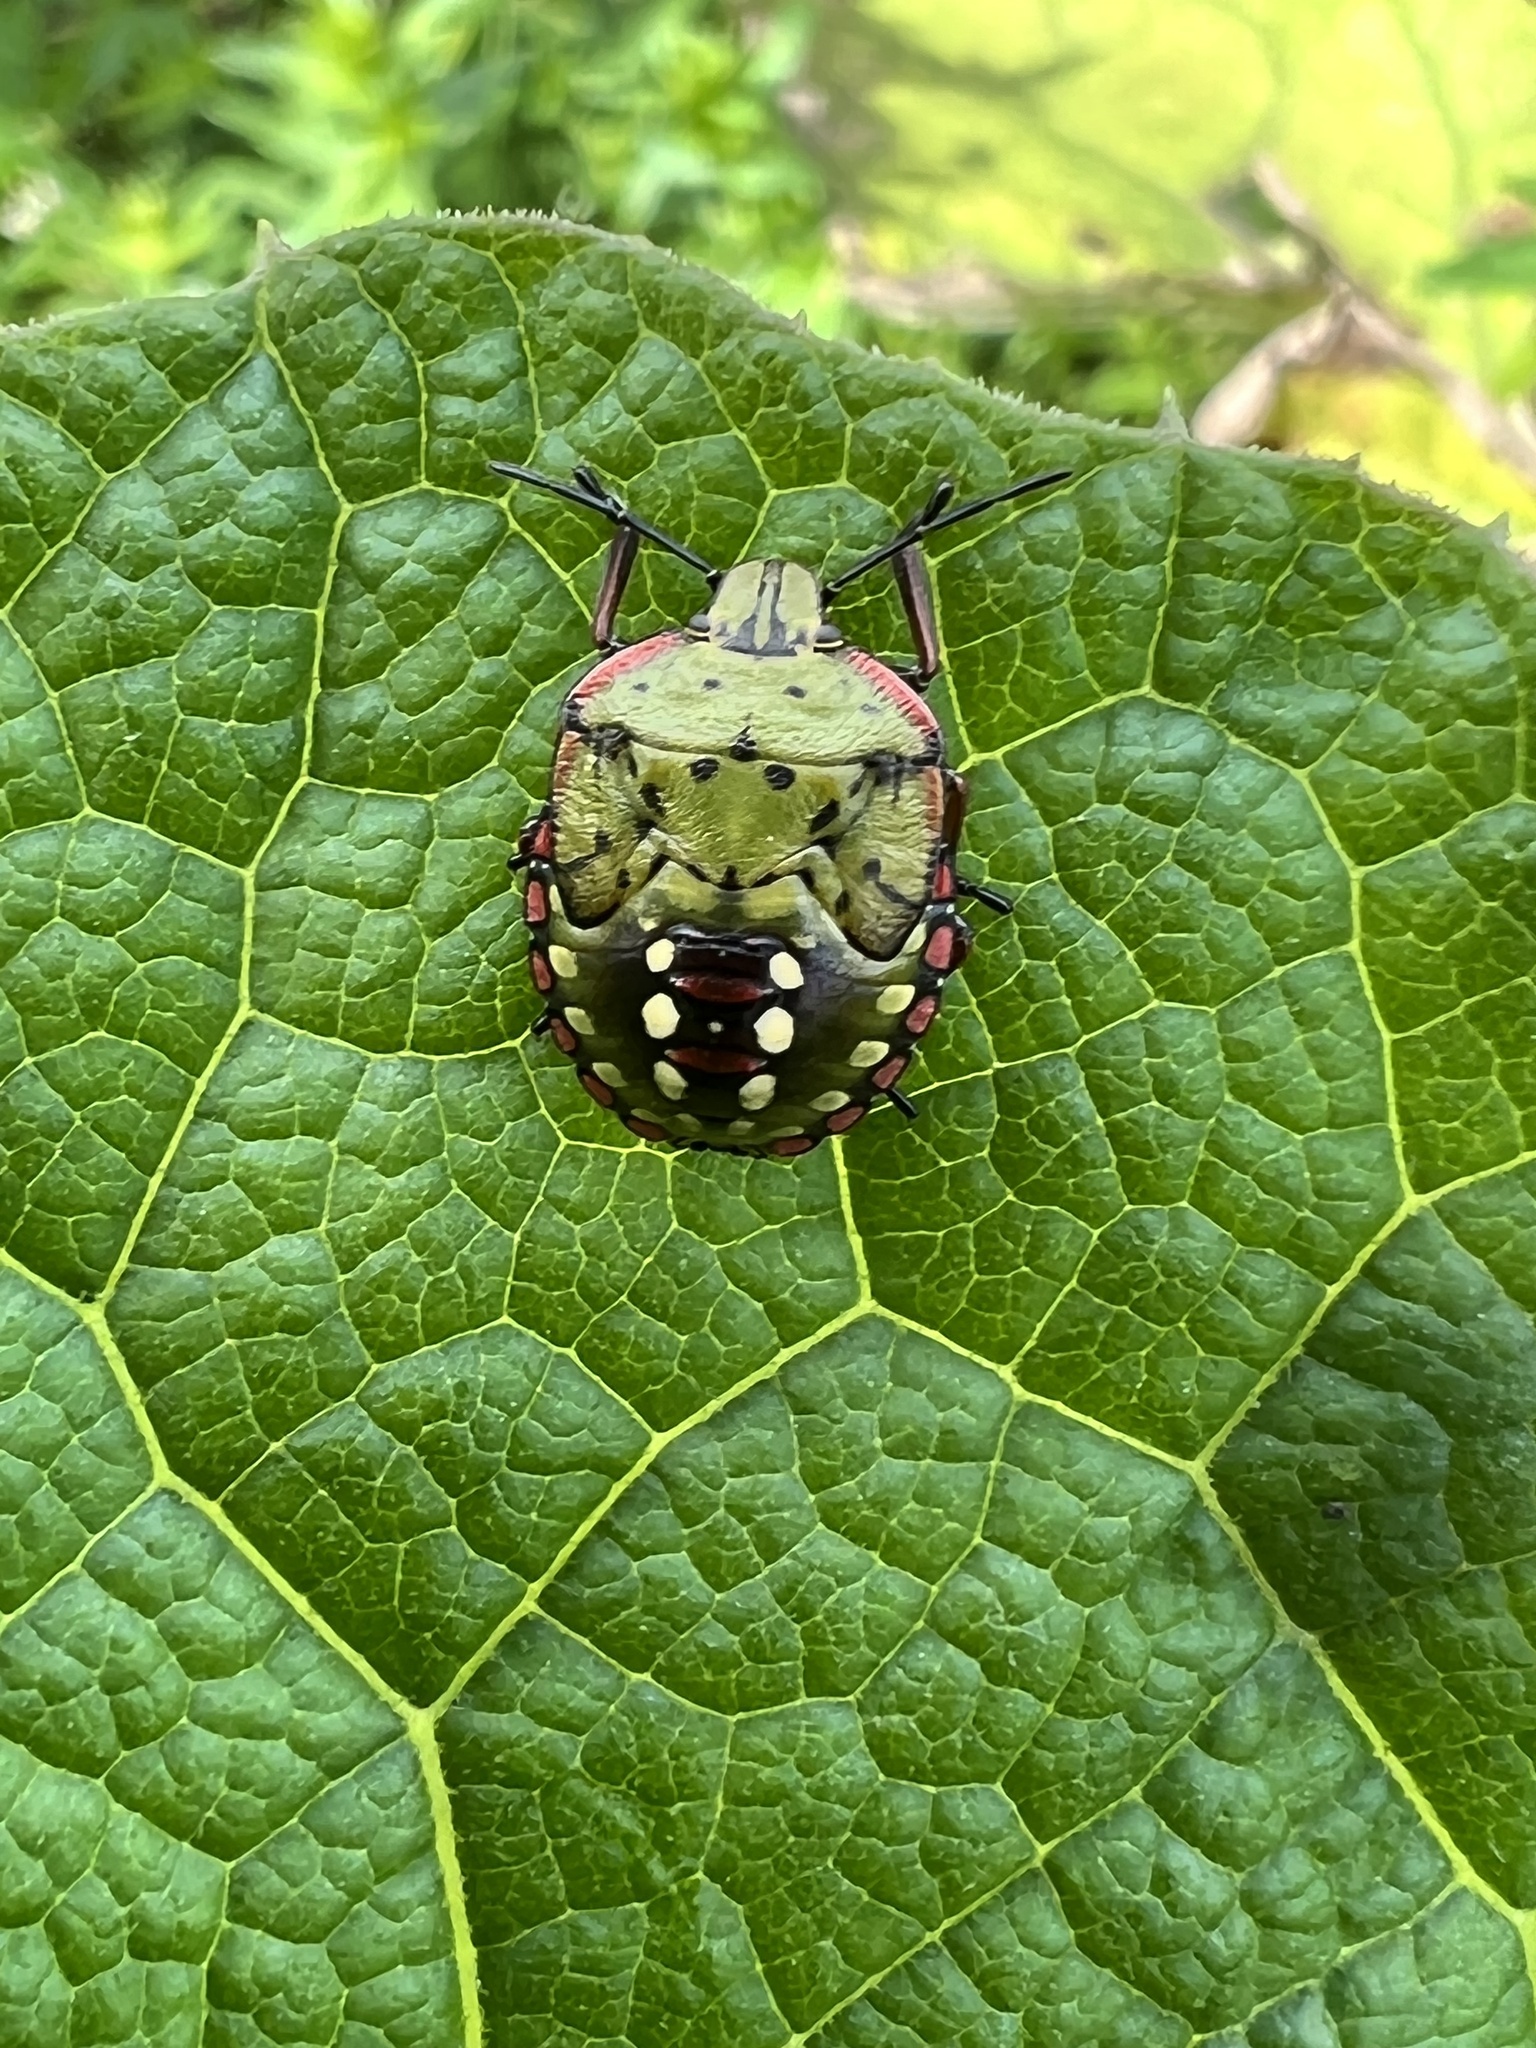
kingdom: Animalia
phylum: Arthropoda
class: Insecta
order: Hemiptera
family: Pentatomidae
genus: Nezara
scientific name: Nezara viridula
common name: Southern green stink bug
